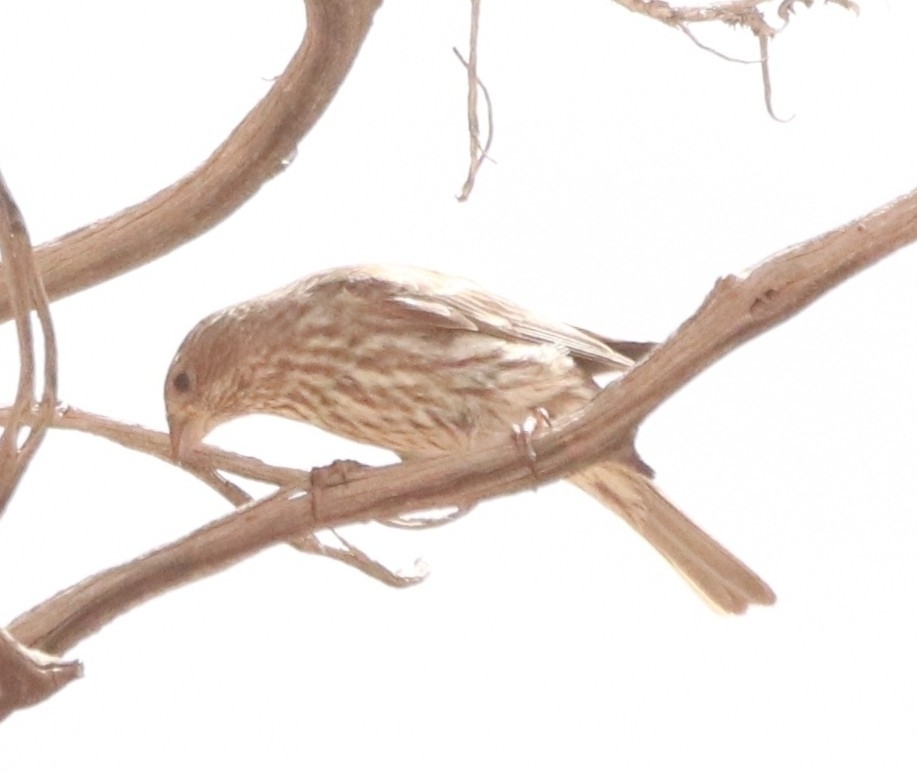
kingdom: Animalia
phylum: Chordata
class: Aves
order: Passeriformes
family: Fringillidae
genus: Haemorhous
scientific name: Haemorhous mexicanus
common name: House finch
